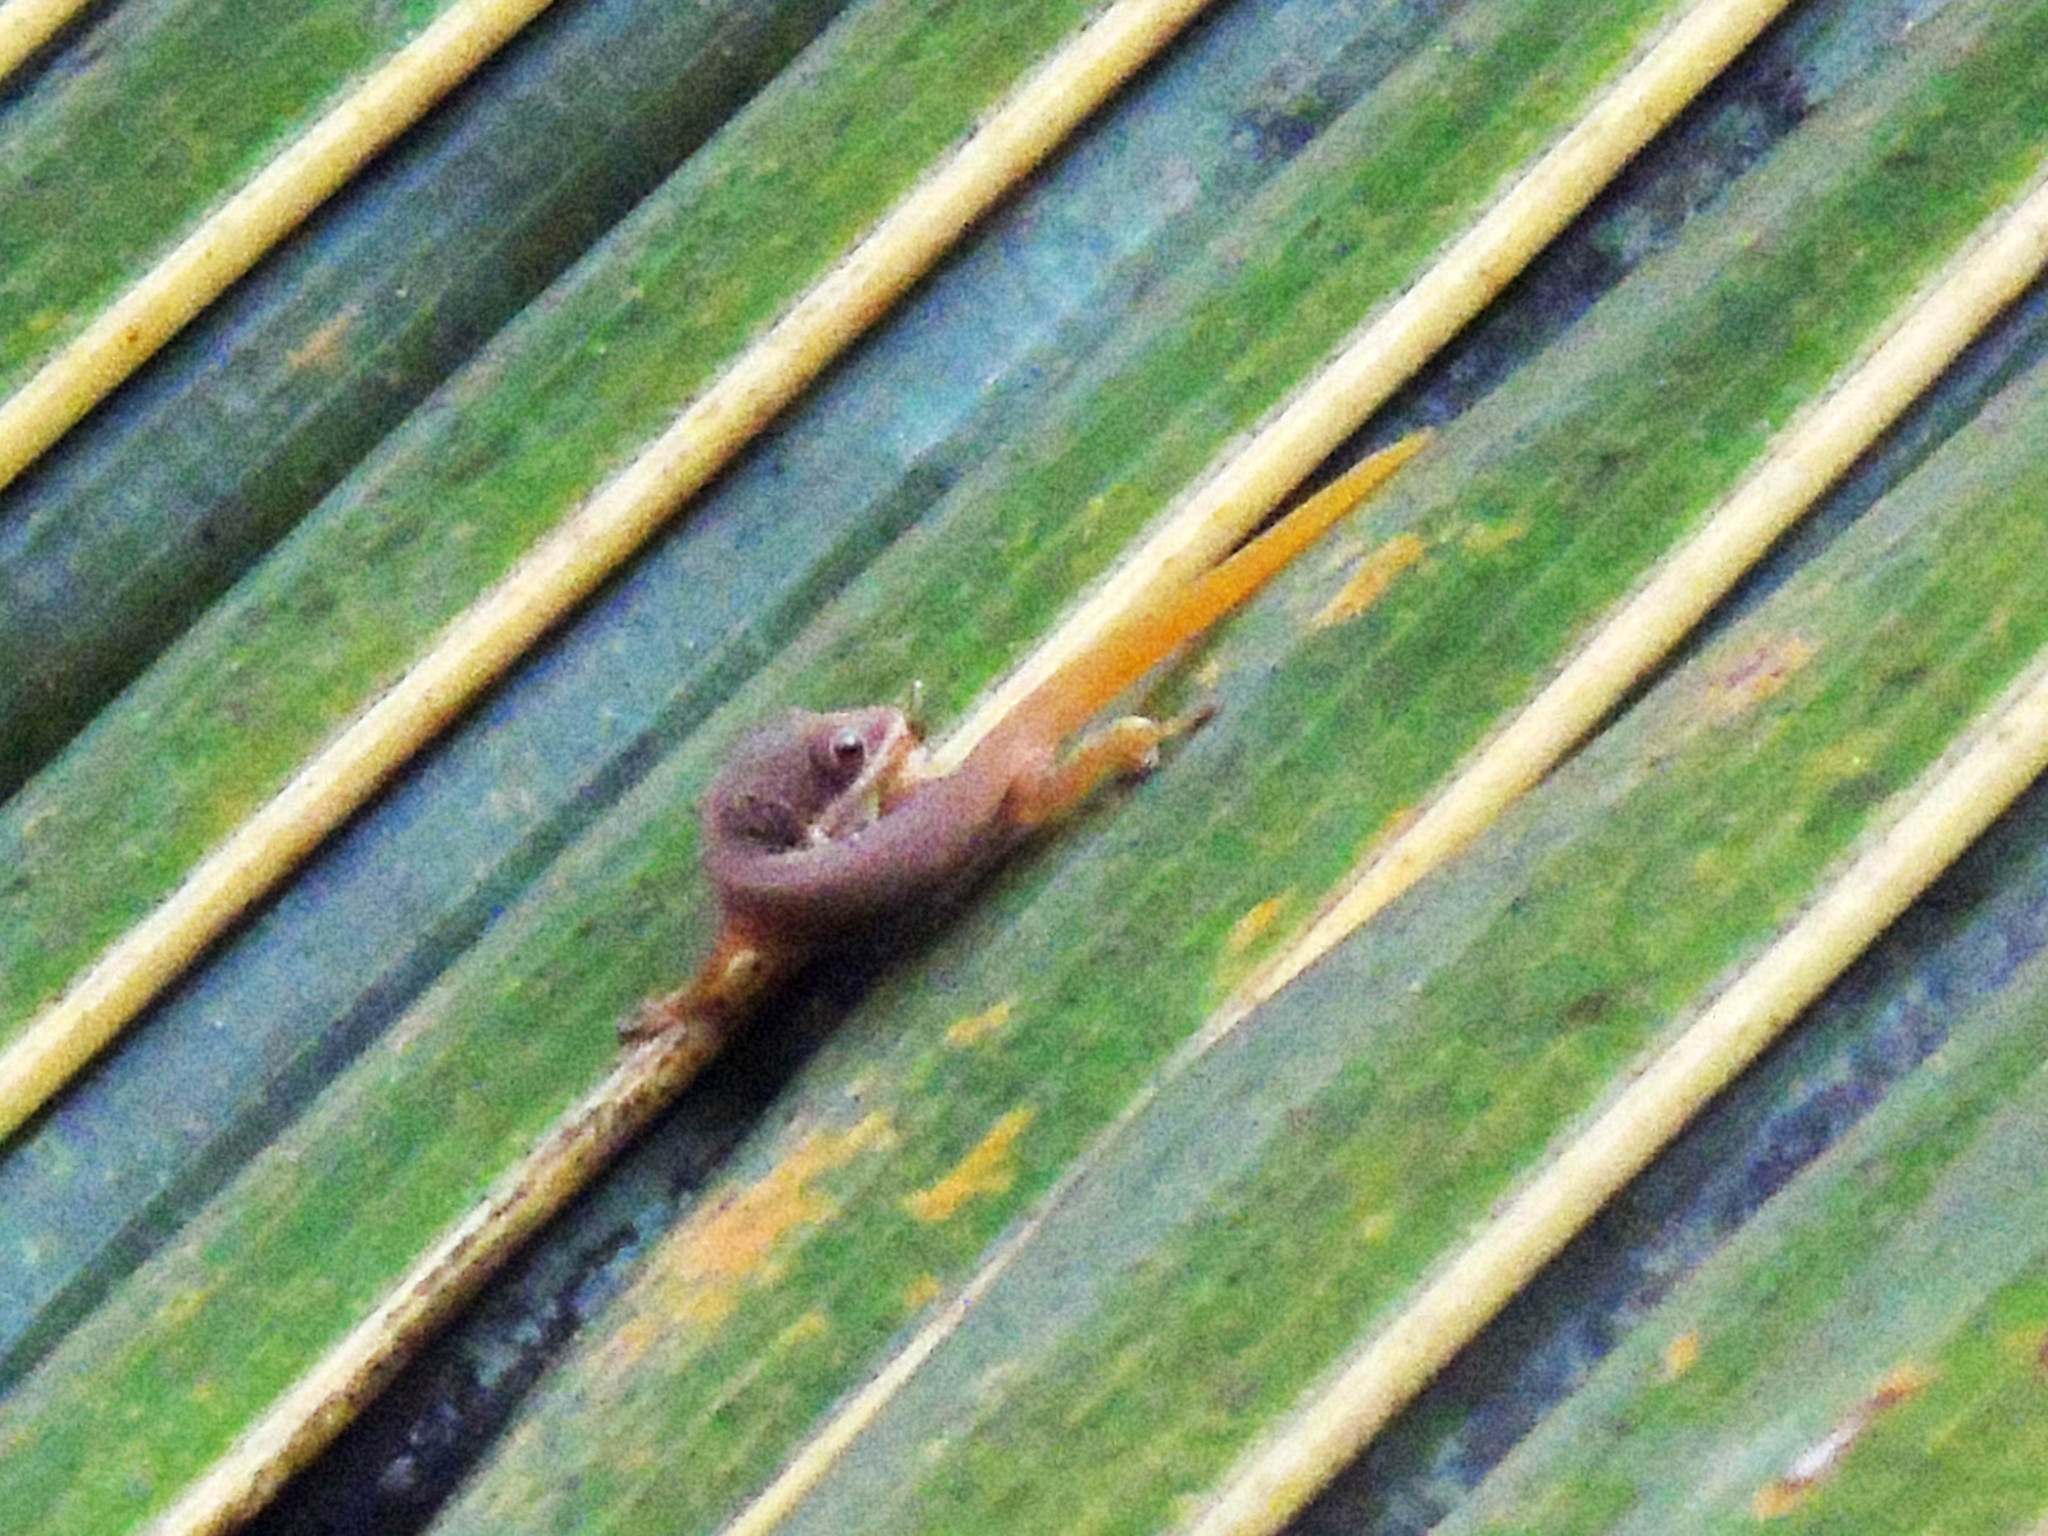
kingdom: Animalia
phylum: Chordata
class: Squamata
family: Gekkonidae
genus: Phelsuma
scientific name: Phelsuma dubia
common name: Zanzibar day gecko
